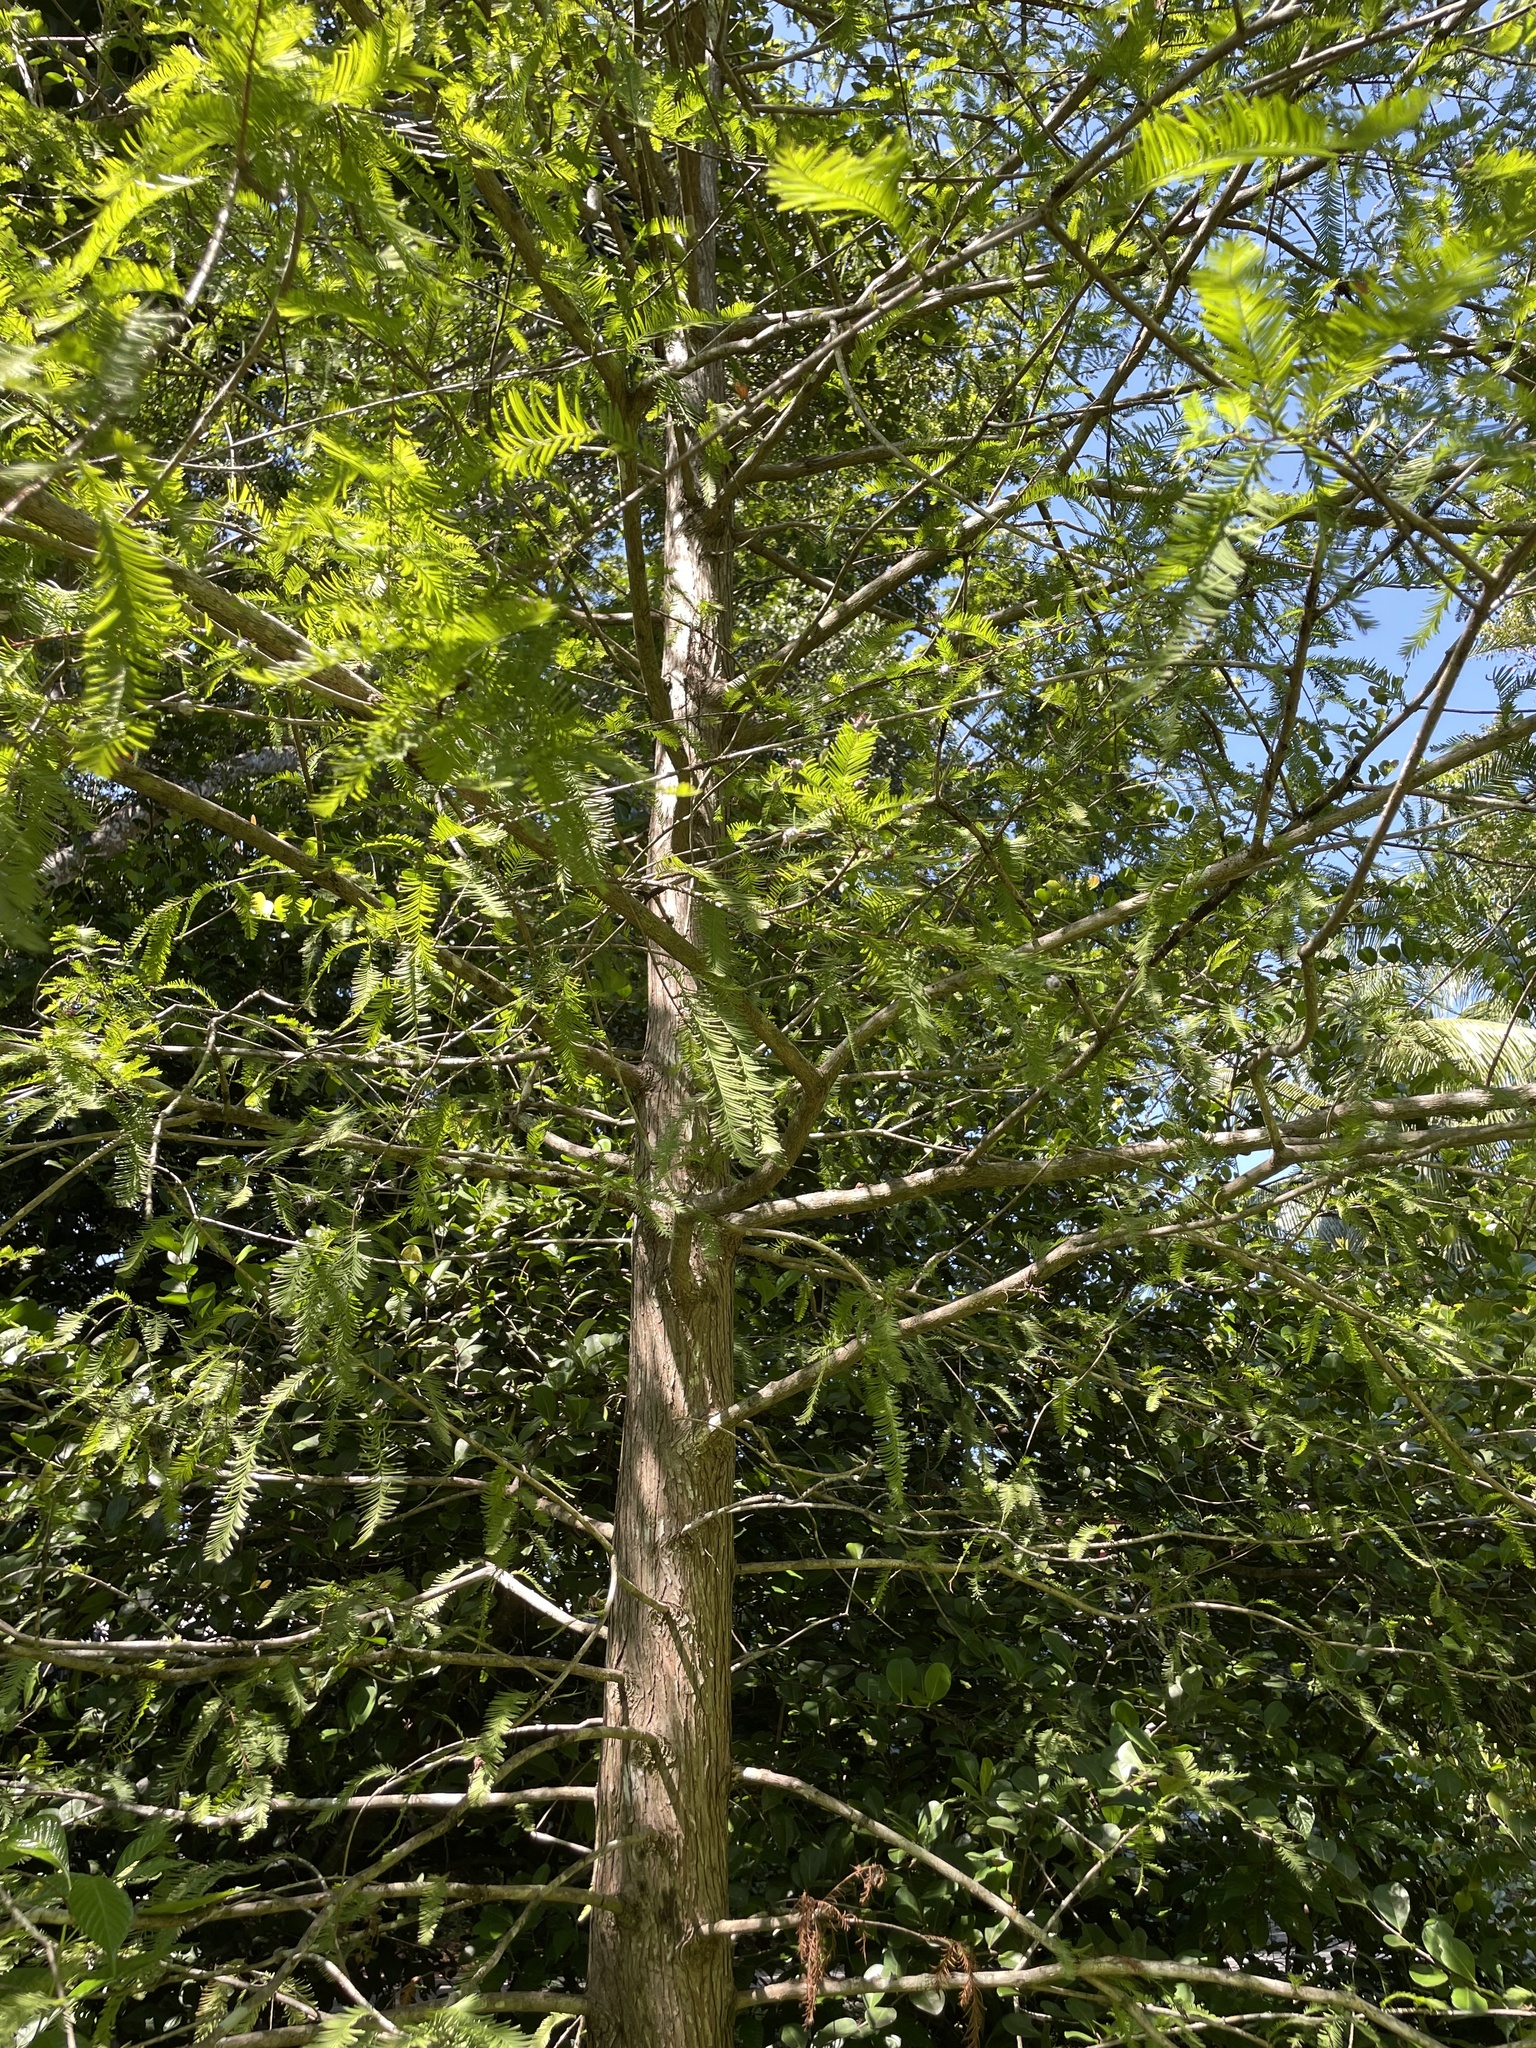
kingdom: Plantae
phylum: Tracheophyta
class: Pinopsida
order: Pinales
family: Cupressaceae
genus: Taxodium
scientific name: Taxodium distichum
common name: Bald cypress
